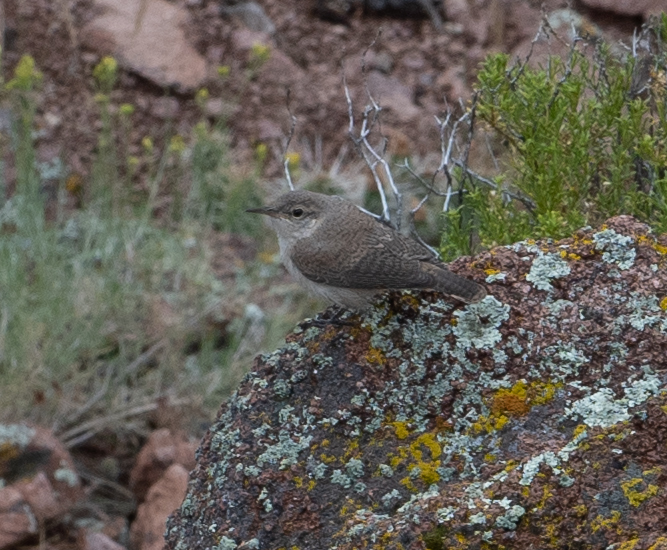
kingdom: Animalia
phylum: Chordata
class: Aves
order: Passeriformes
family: Troglodytidae
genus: Salpinctes
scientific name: Salpinctes obsoletus
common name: Rock wren
